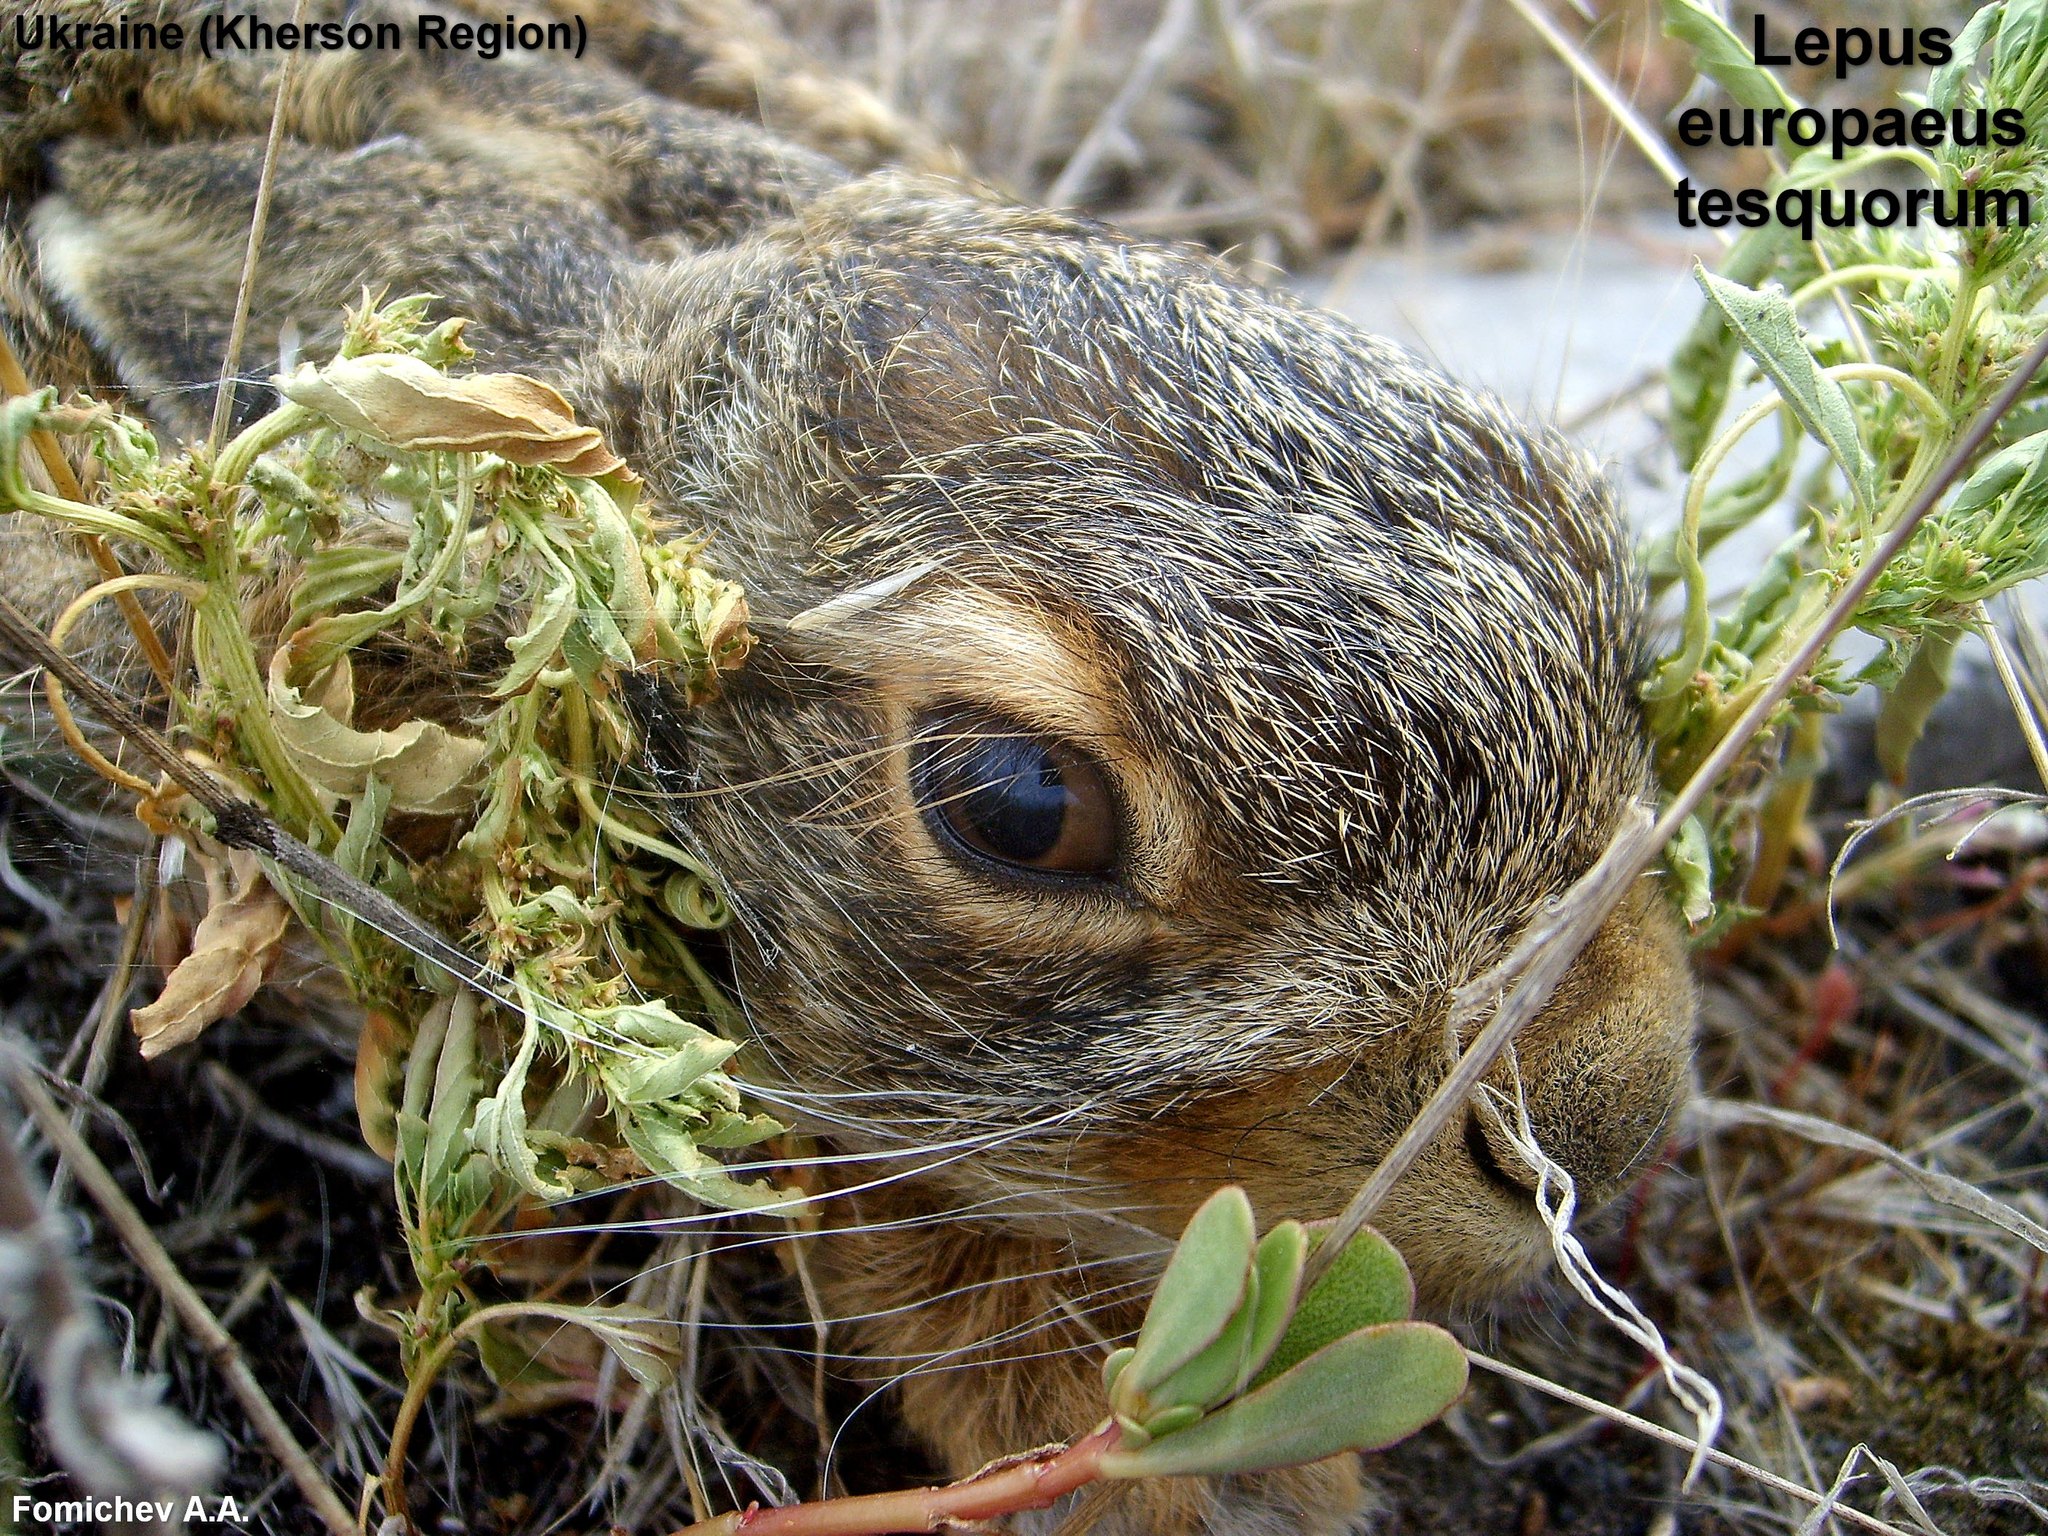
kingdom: Animalia
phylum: Chordata
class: Mammalia
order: Lagomorpha
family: Leporidae
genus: Lepus
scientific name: Lepus europaeus
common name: European hare
